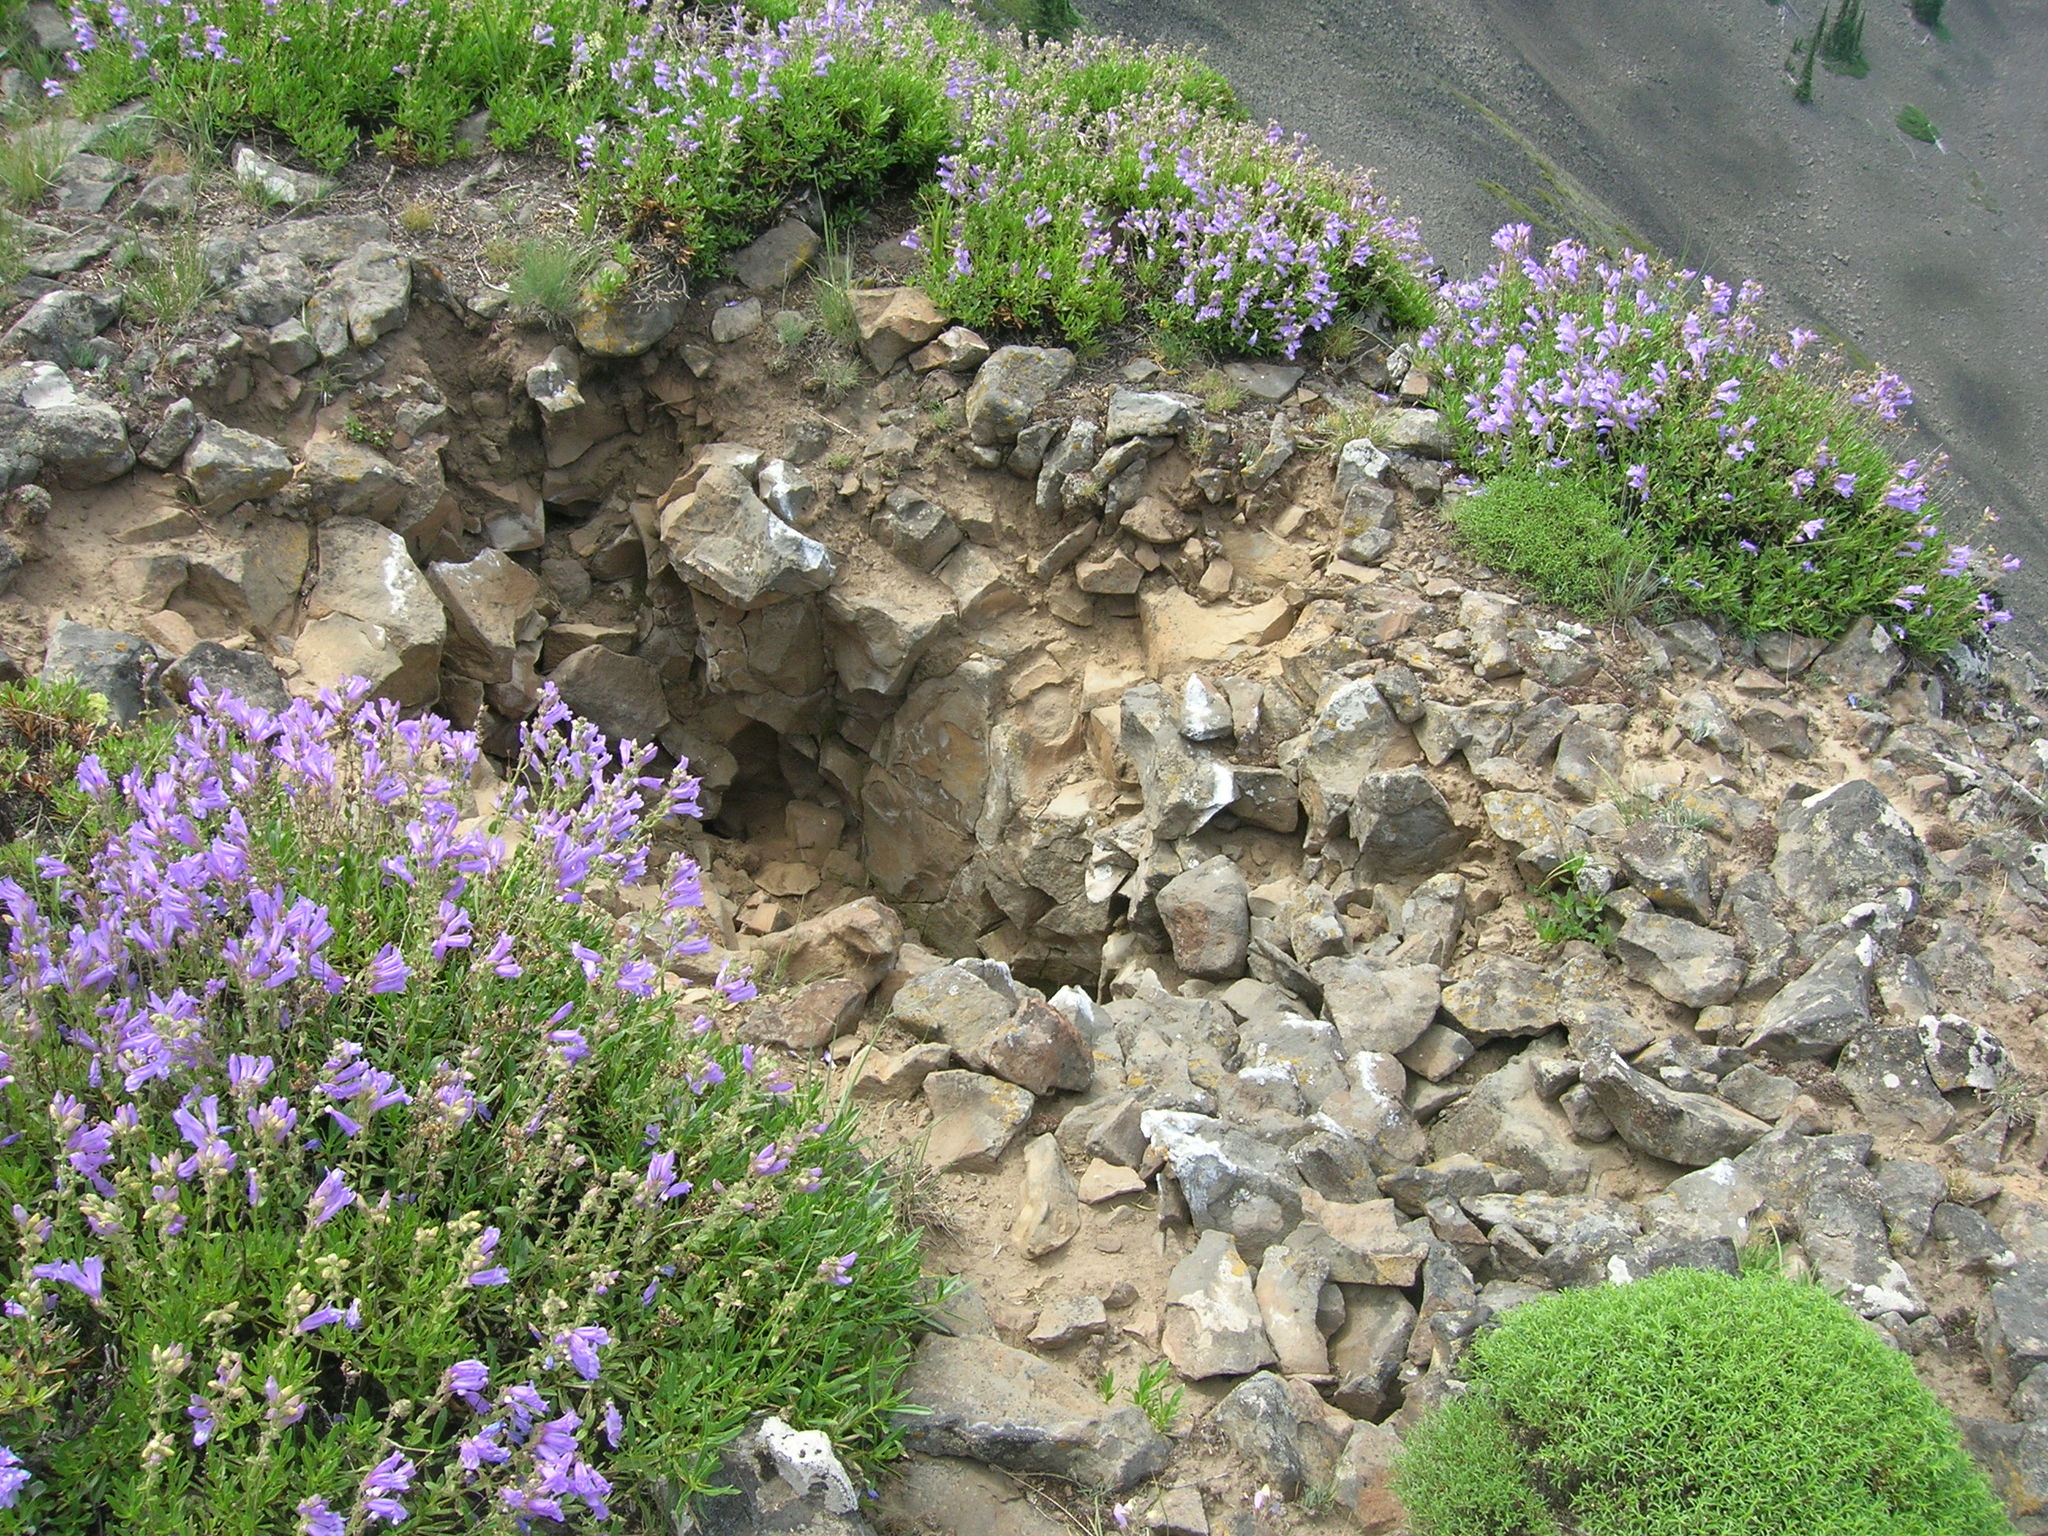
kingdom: Plantae
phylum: Tracheophyta
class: Magnoliopsida
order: Lamiales
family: Plantaginaceae
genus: Penstemon
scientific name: Penstemon fruticosus
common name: Bush penstemon
